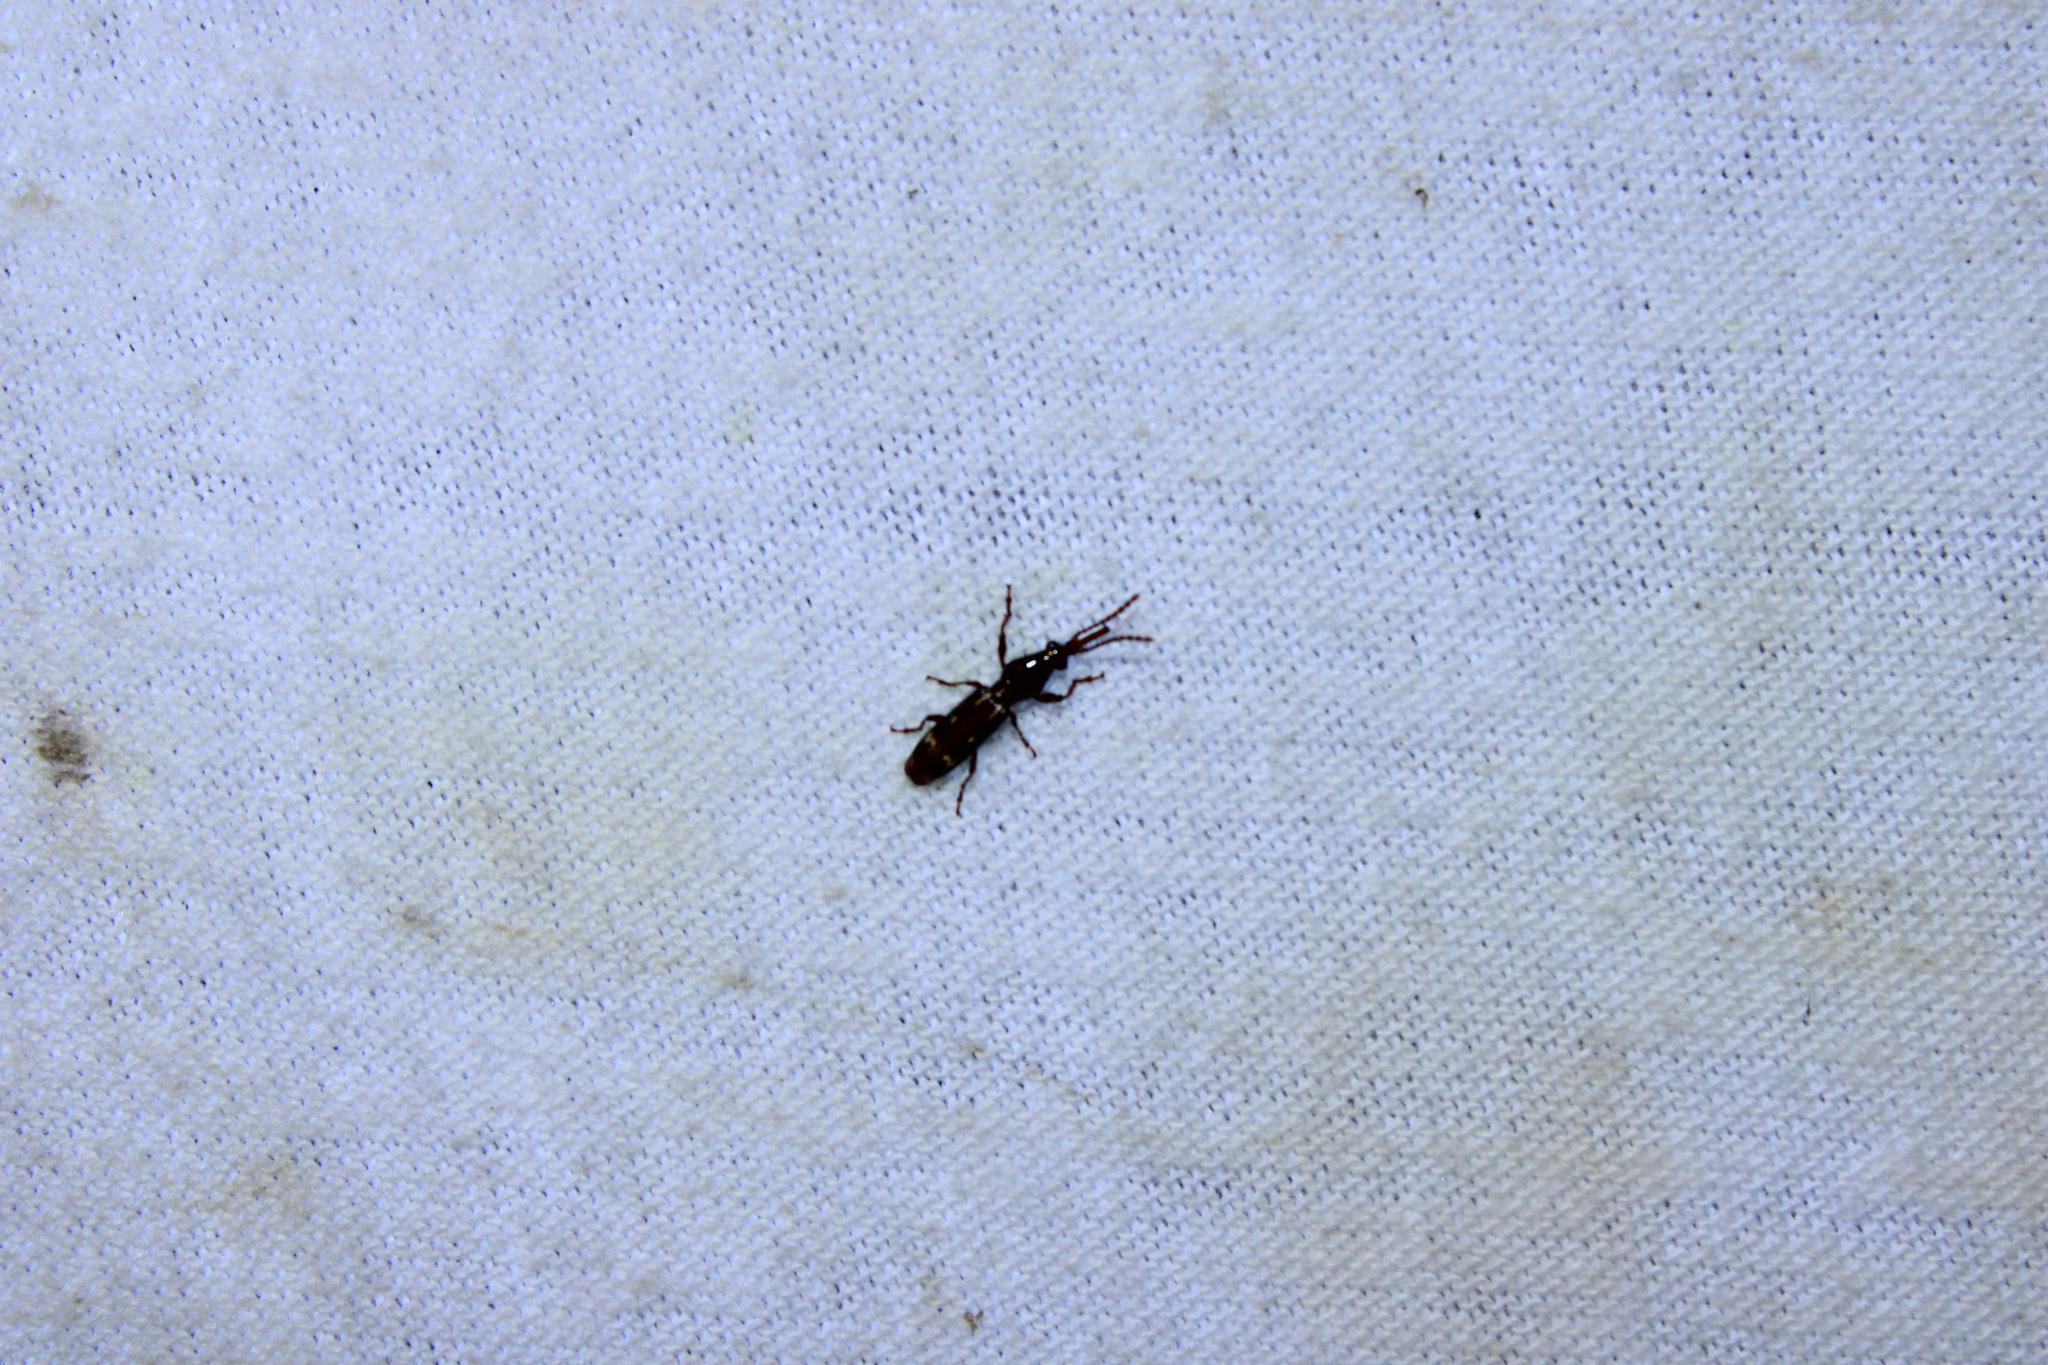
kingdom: Animalia
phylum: Arthropoda
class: Insecta
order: Coleoptera
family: Brentidae
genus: Arrenodes
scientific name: Arrenodes minutus
